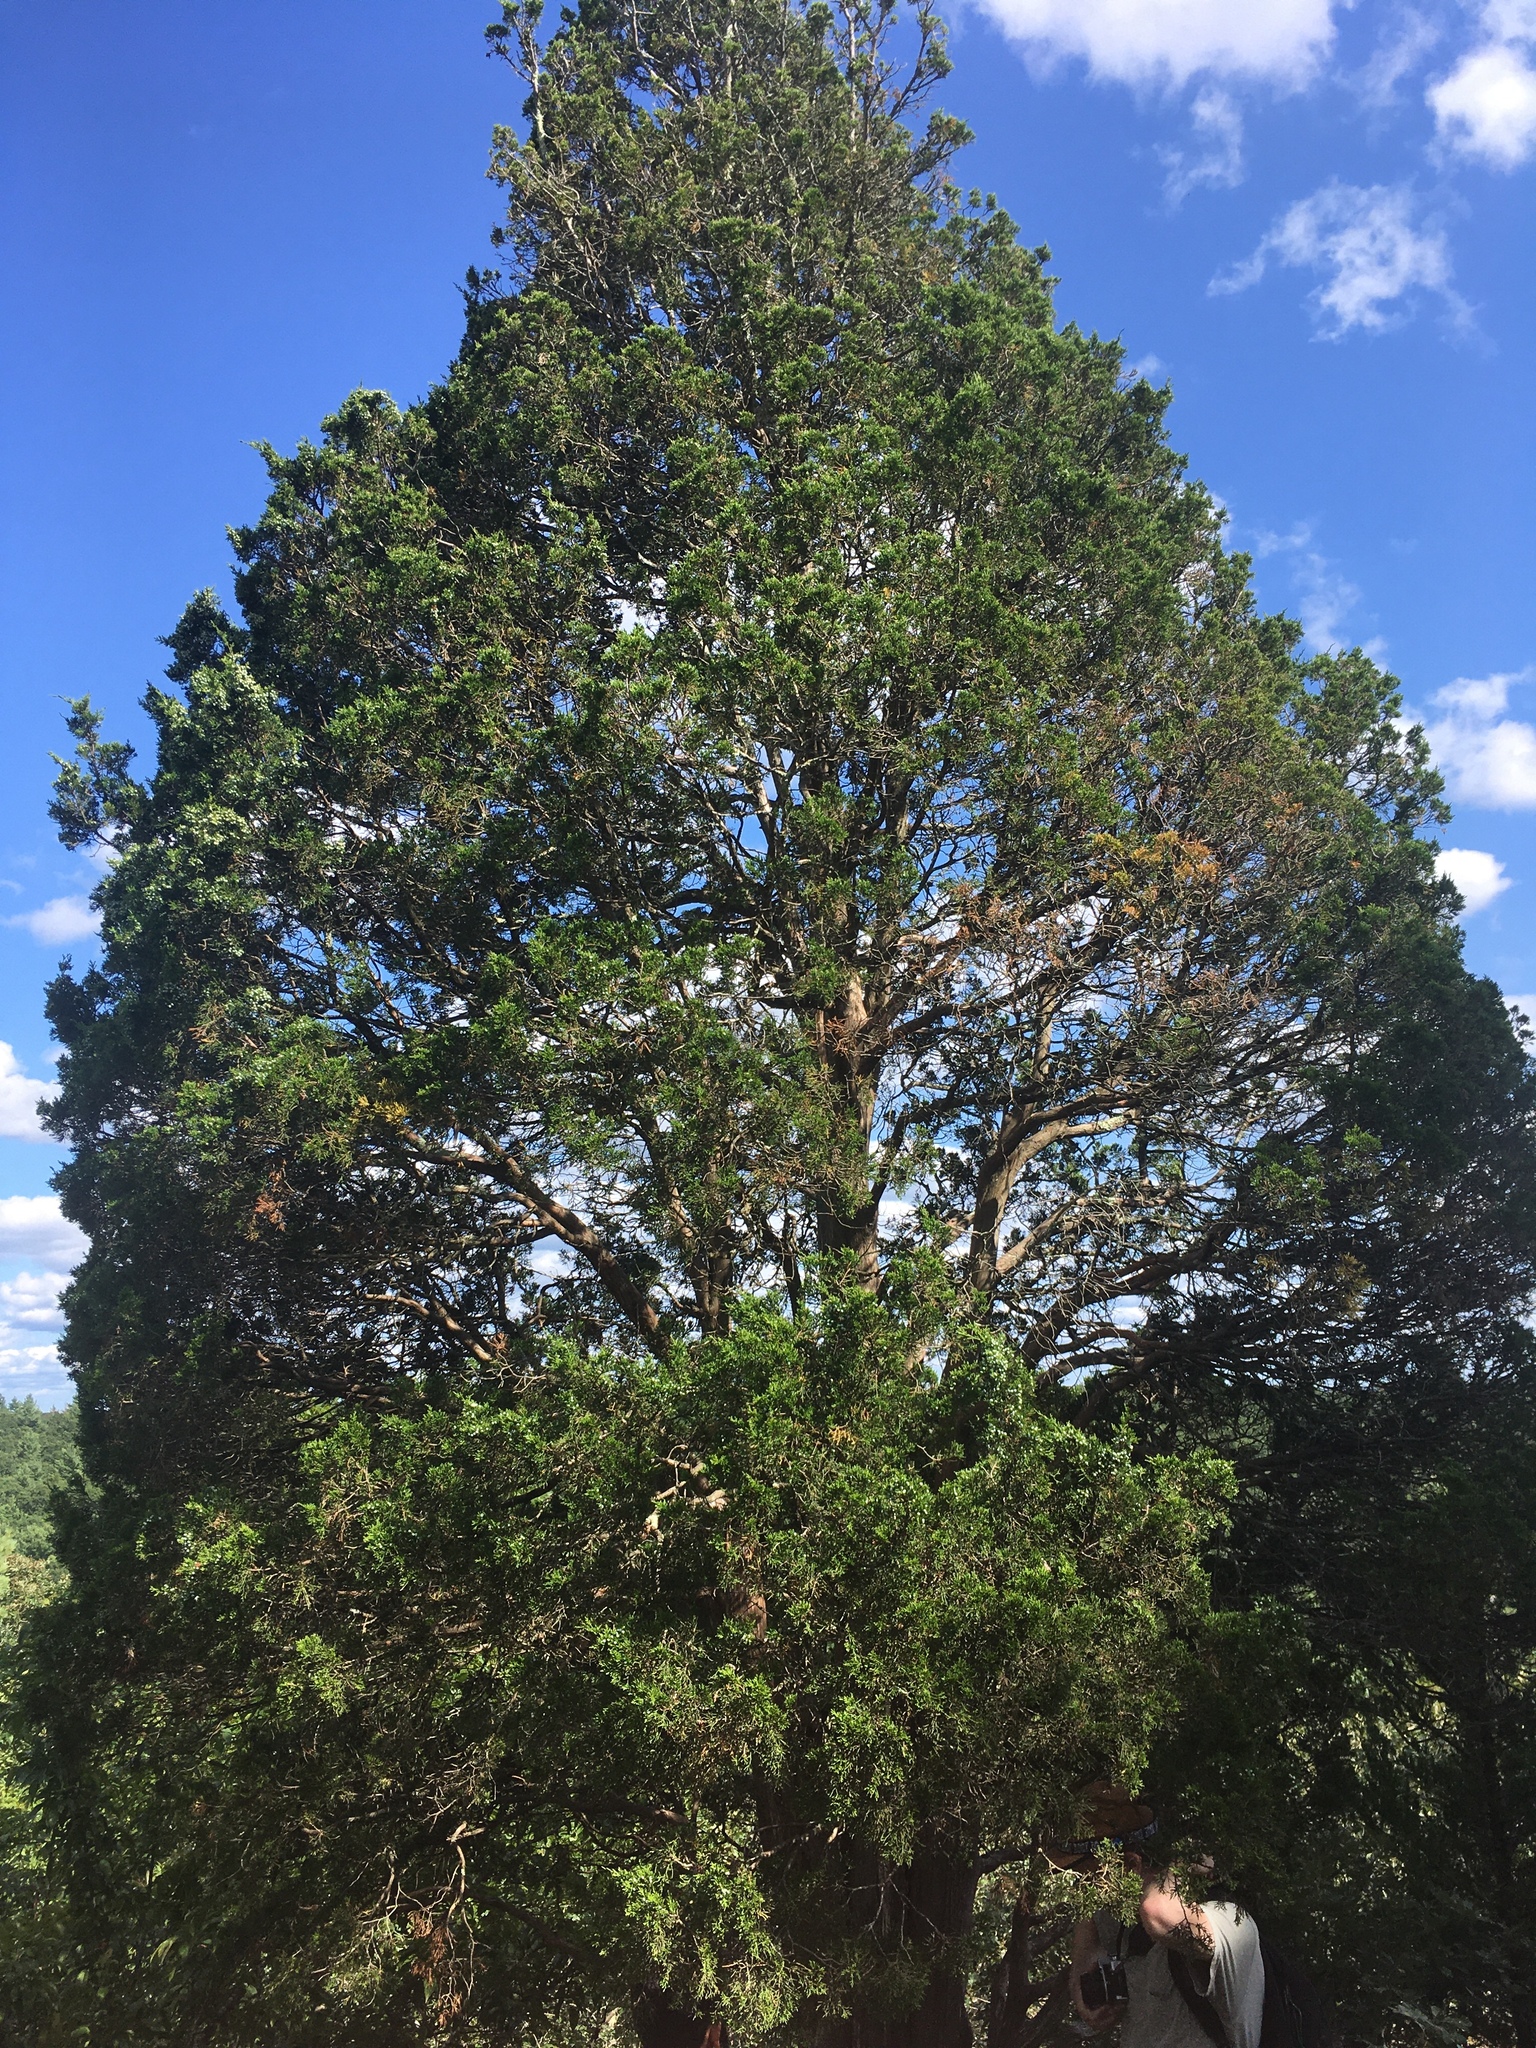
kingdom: Plantae
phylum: Tracheophyta
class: Pinopsida
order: Pinales
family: Cupressaceae
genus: Juniperus
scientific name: Juniperus virginiana
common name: Red juniper
